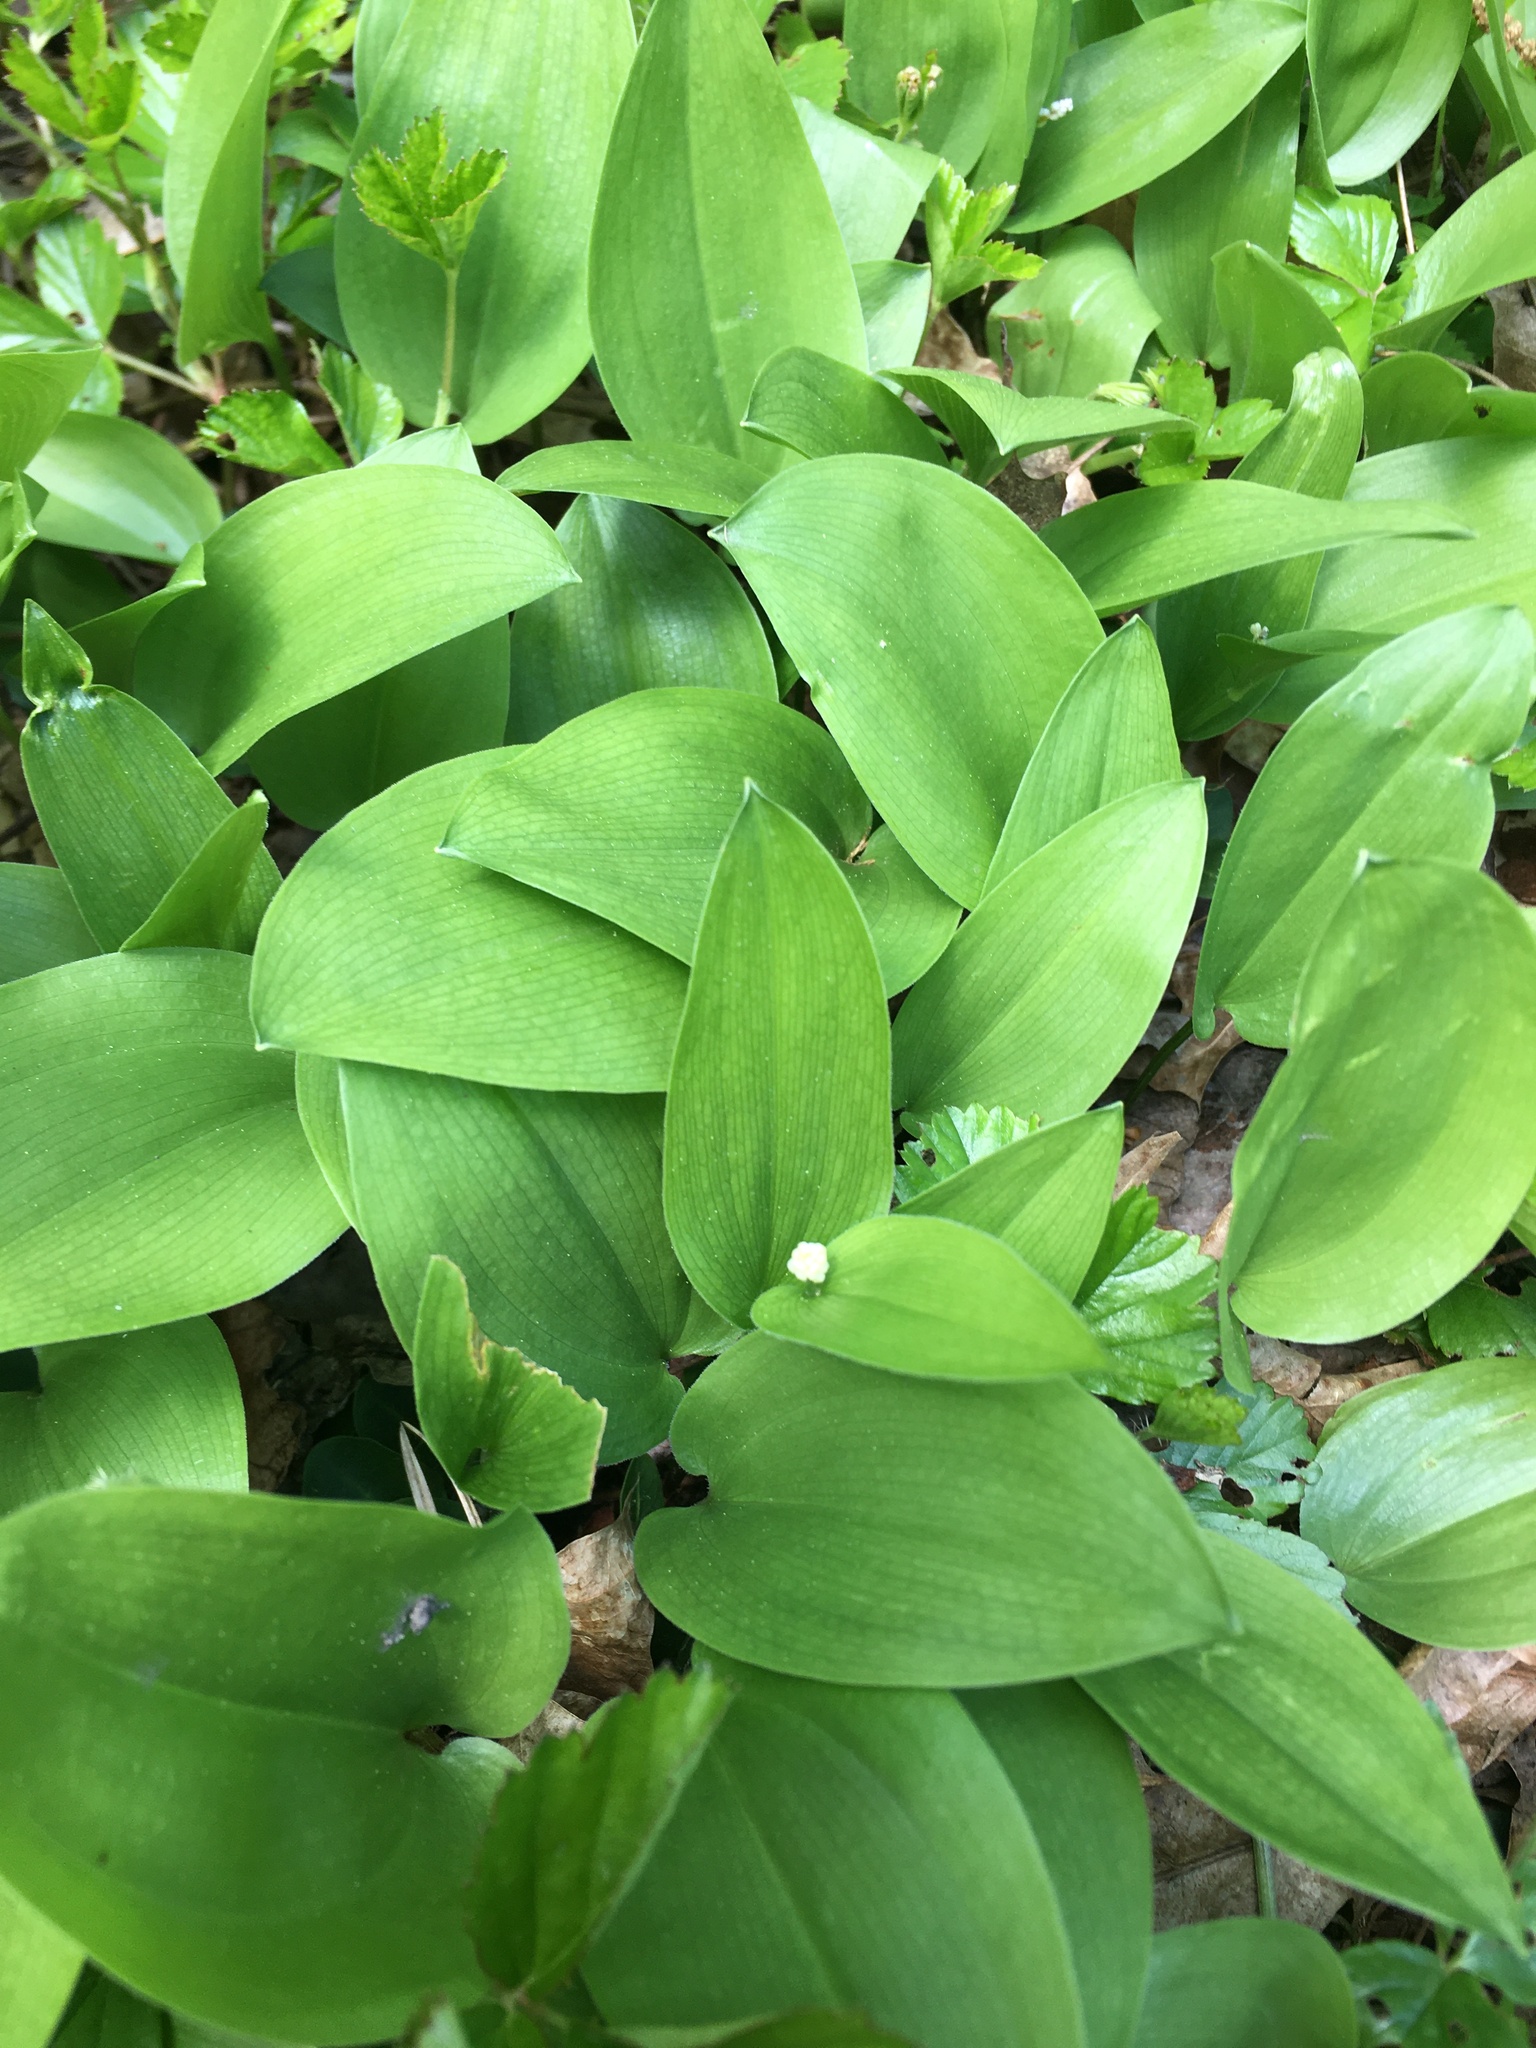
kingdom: Plantae
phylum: Tracheophyta
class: Liliopsida
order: Asparagales
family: Asparagaceae
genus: Maianthemum
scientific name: Maianthemum canadense
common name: False lily-of-the-valley
